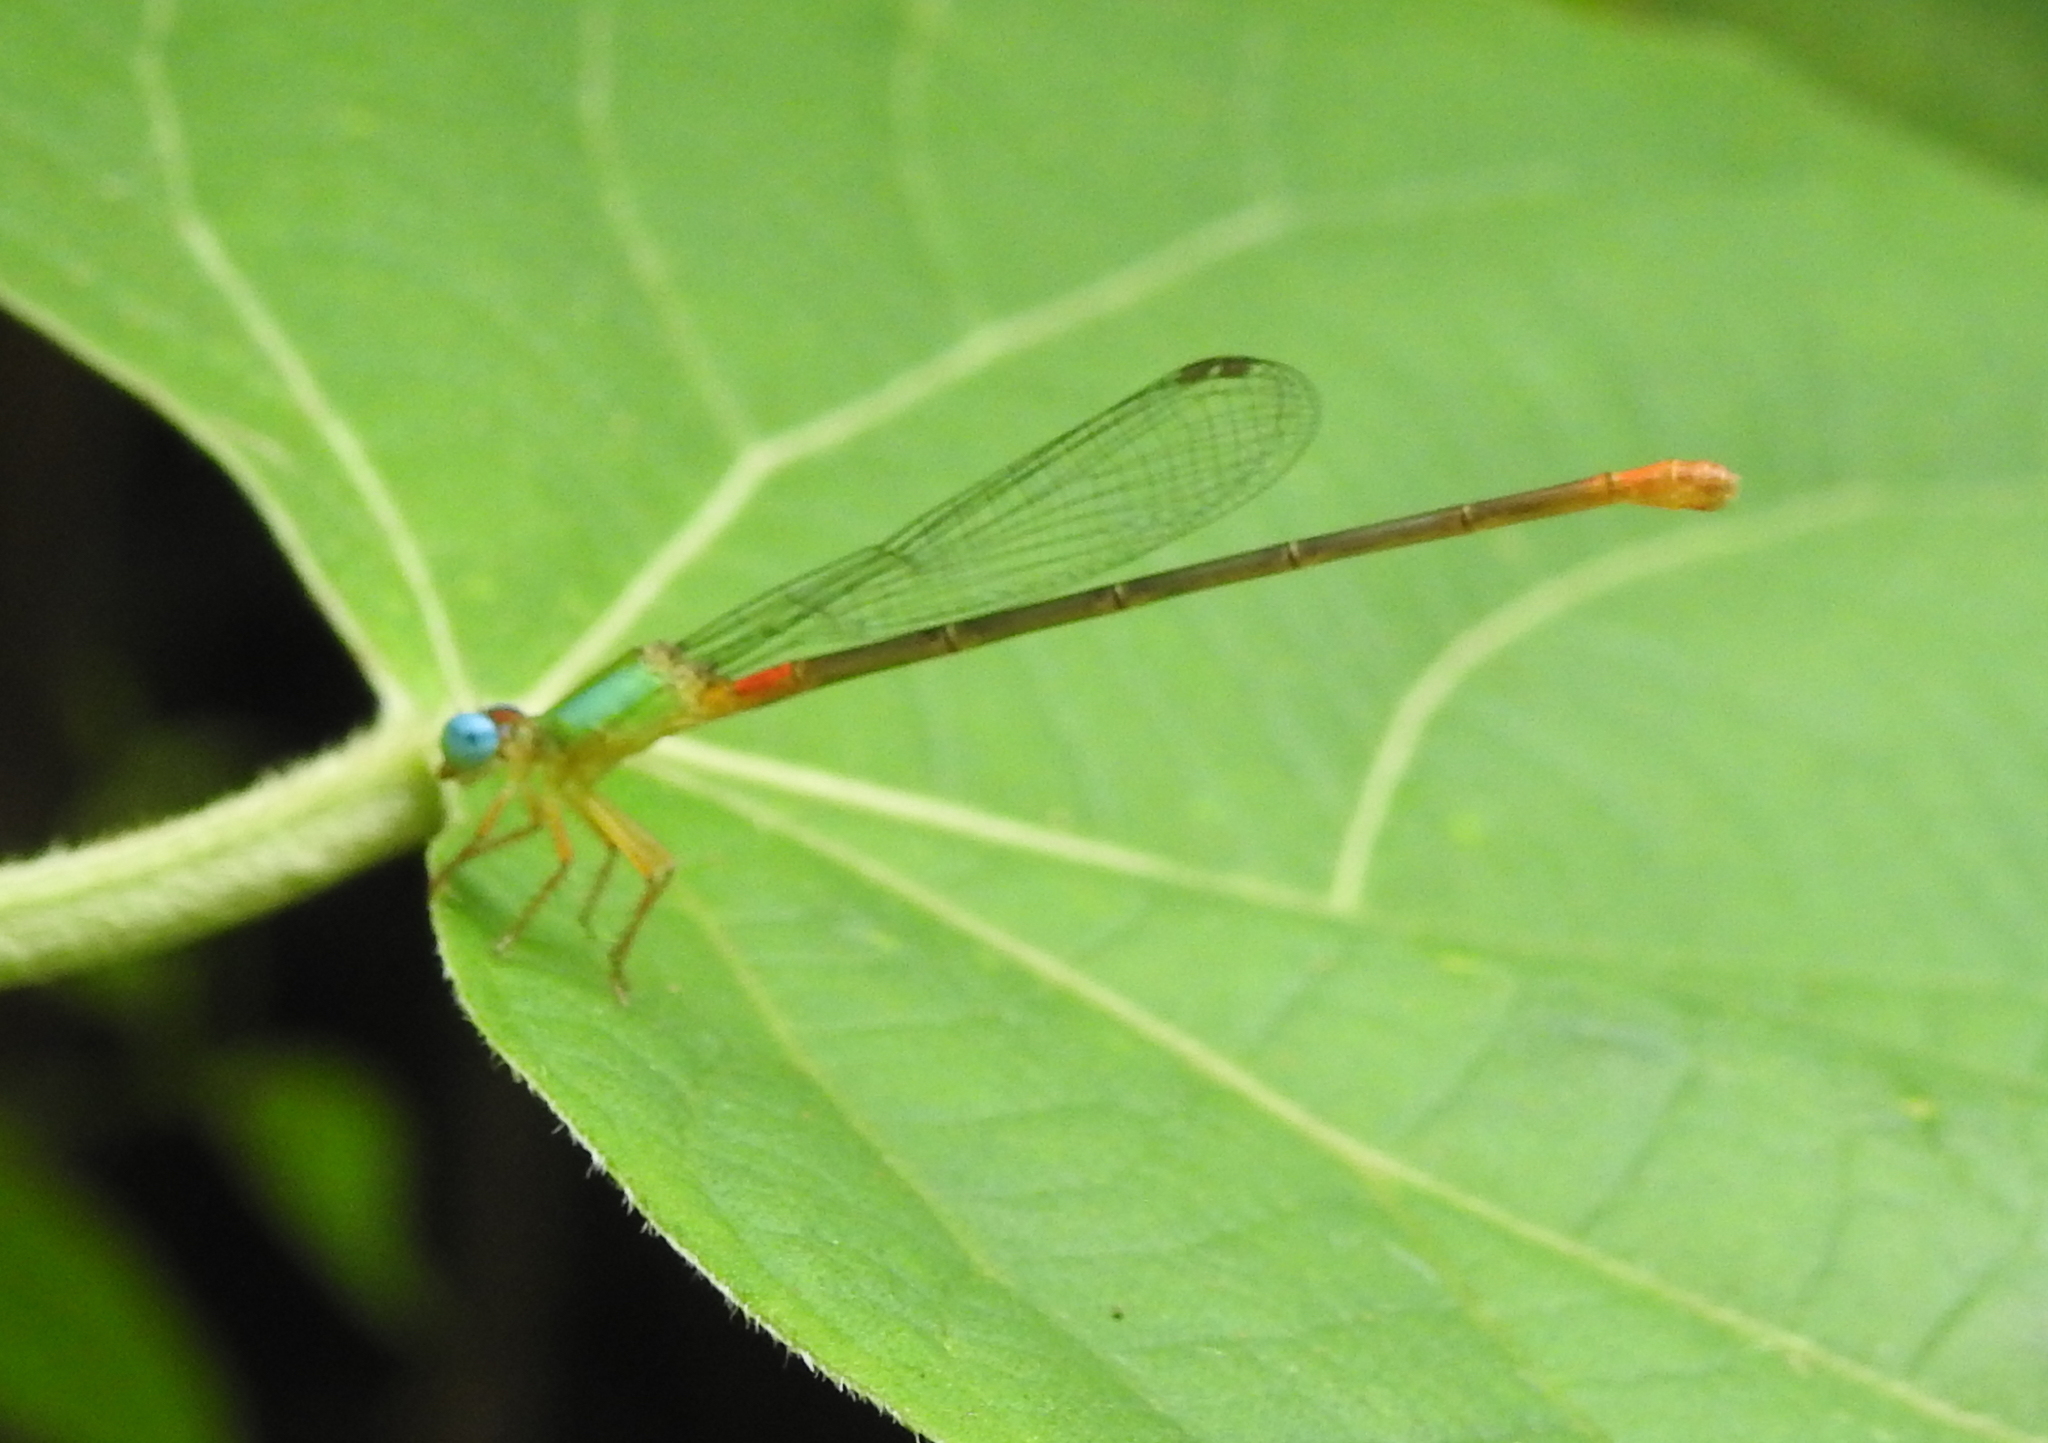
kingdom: Animalia
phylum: Arthropoda
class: Insecta
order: Odonata
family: Coenagrionidae
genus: Ceriagrion
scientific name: Ceriagrion cerinorubellum
